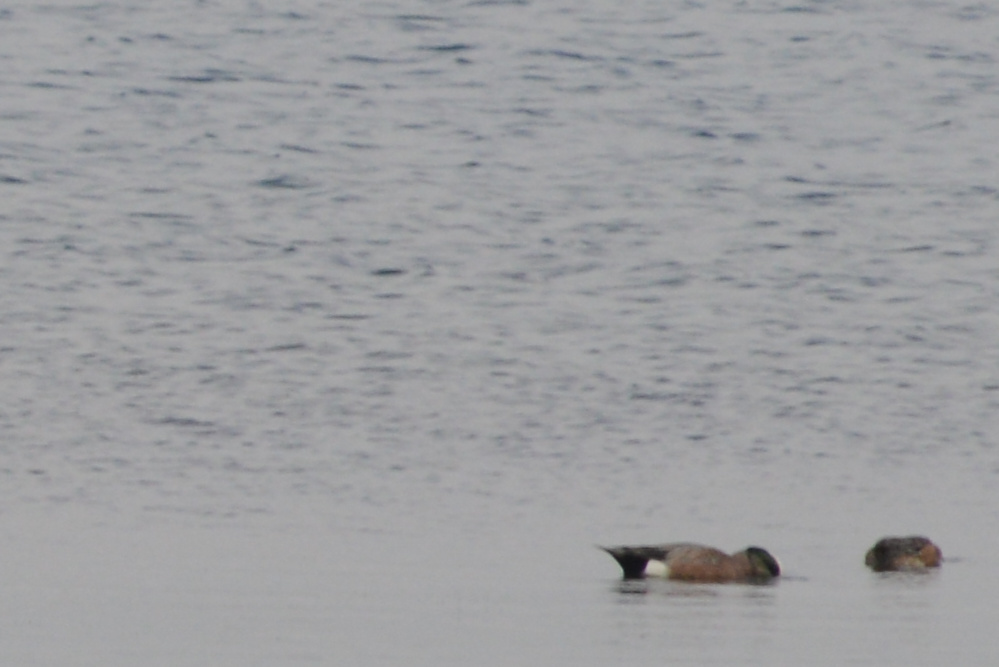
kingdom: Animalia
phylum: Chordata
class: Aves
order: Anseriformes
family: Anatidae
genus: Mareca
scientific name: Mareca americana
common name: American wigeon
